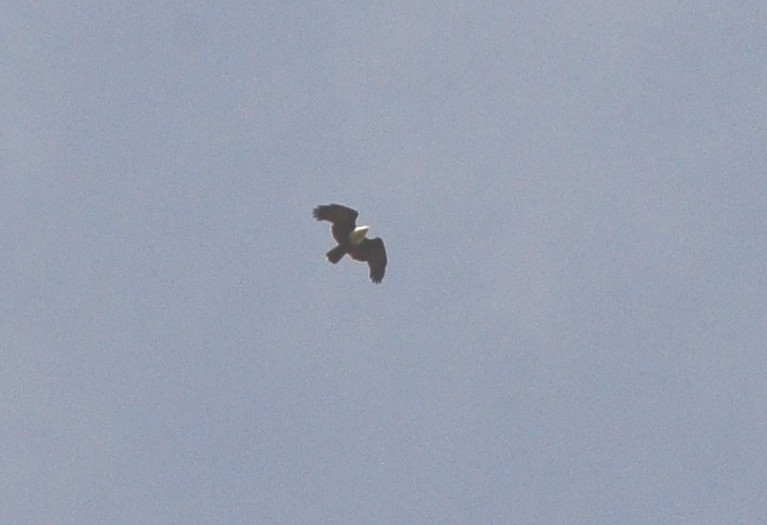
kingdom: Animalia
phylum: Chordata
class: Aves
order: Accipitriformes
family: Accipitridae
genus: Haliastur
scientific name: Haliastur indus
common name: Brahminy kite
